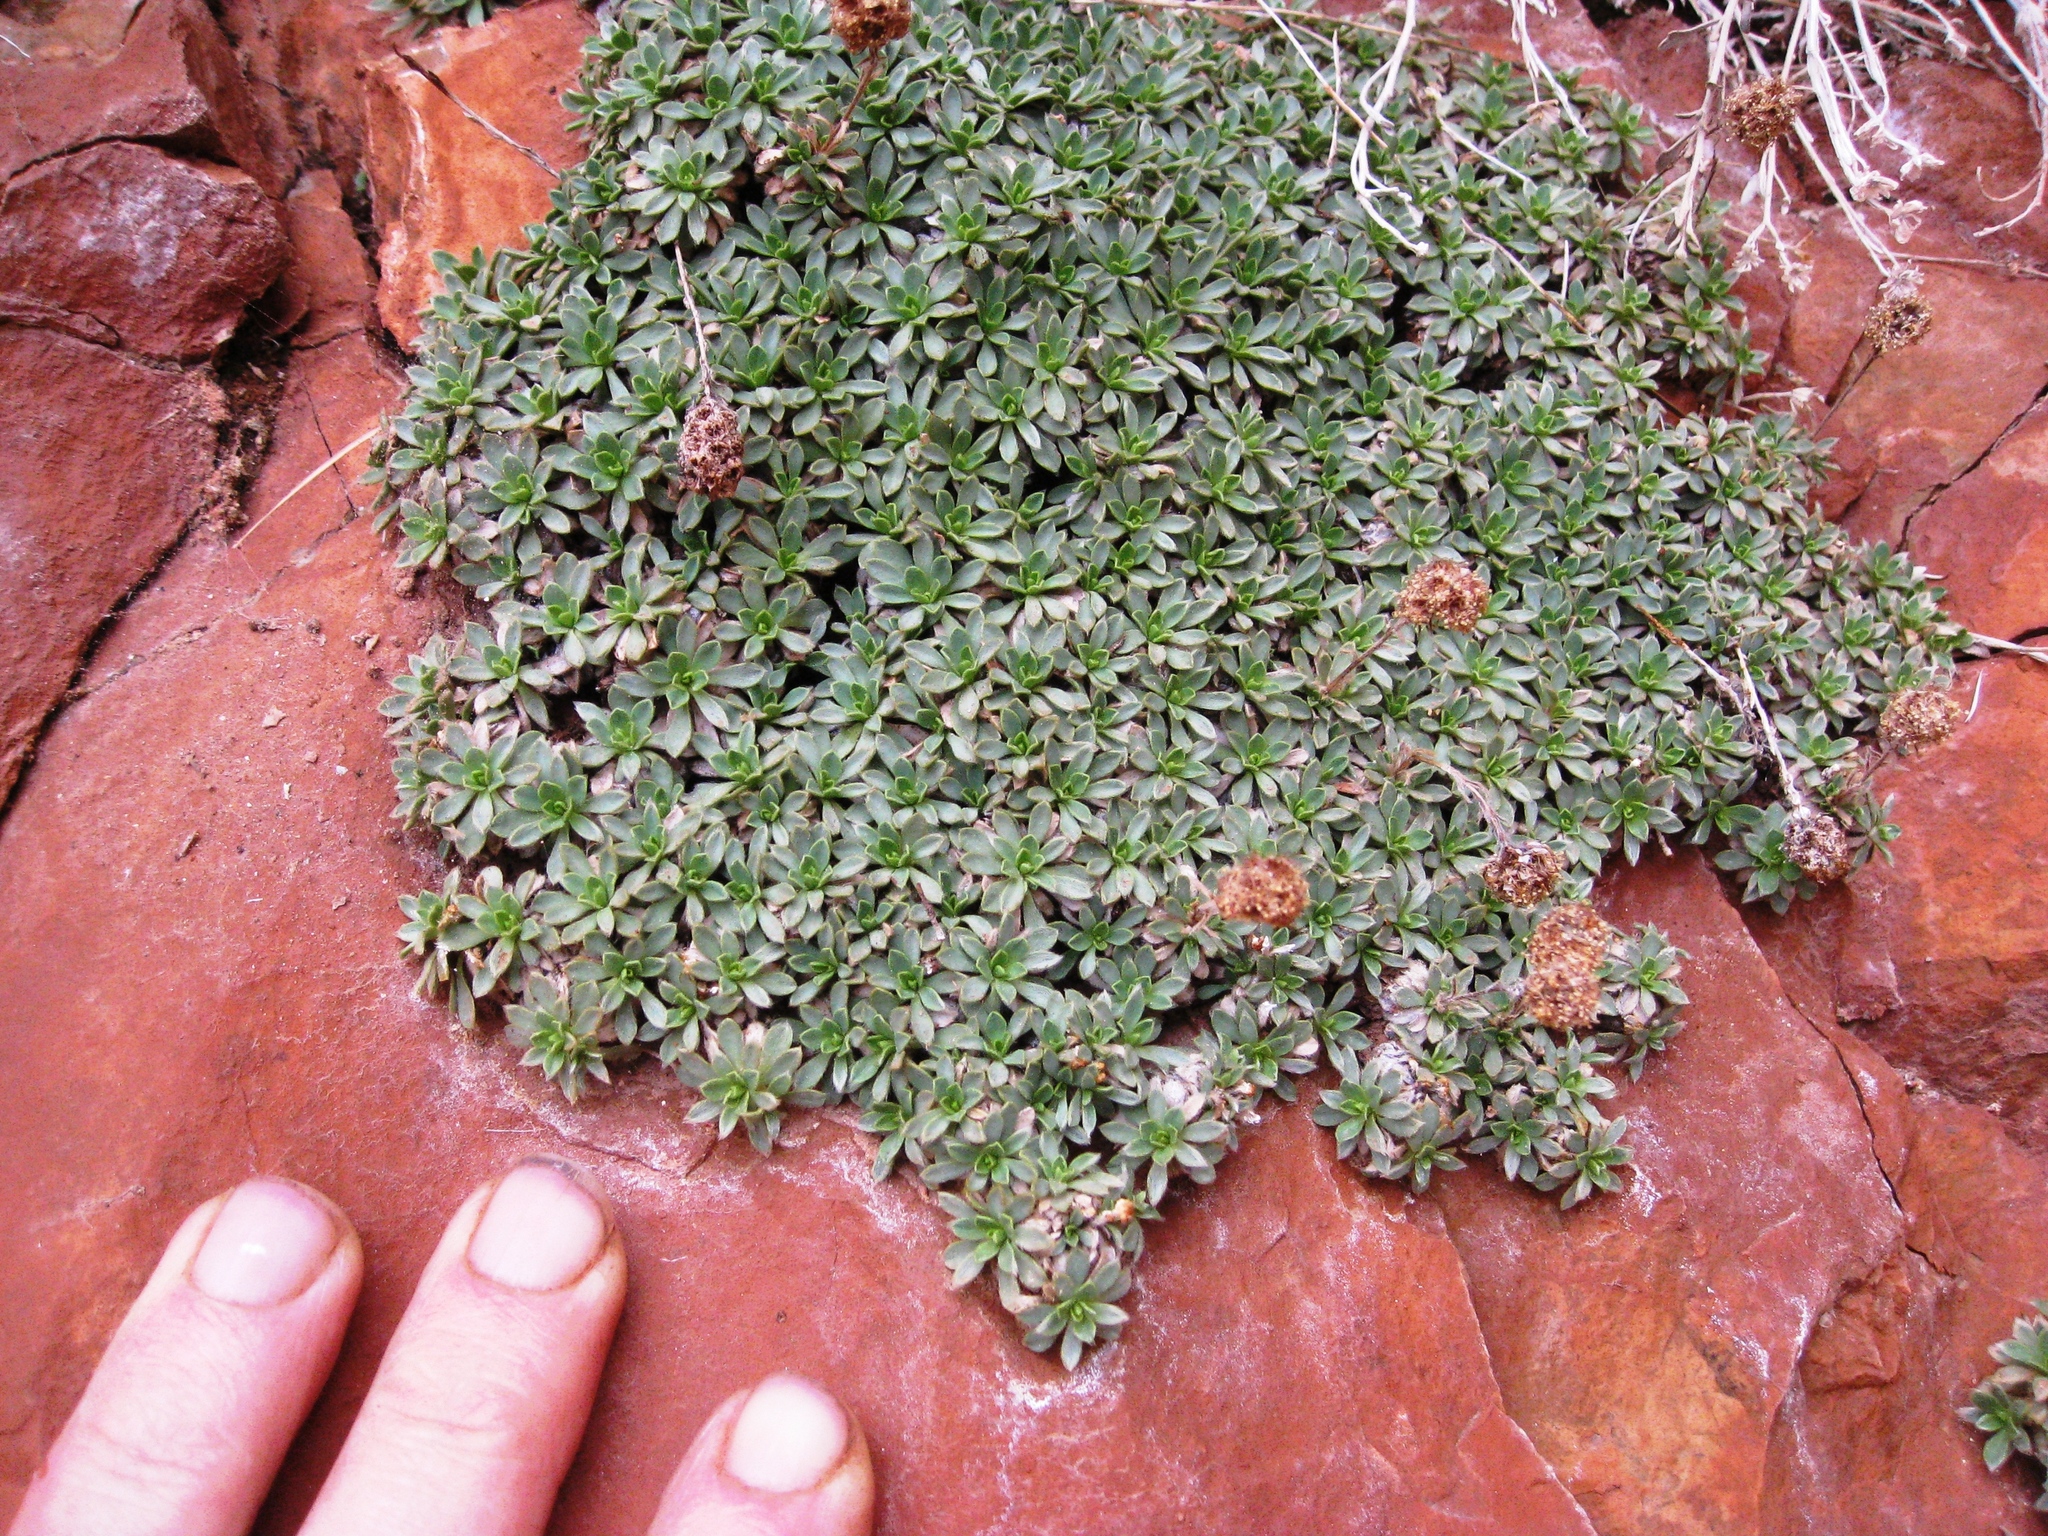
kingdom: Plantae
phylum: Tracheophyta
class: Magnoliopsida
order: Rosales
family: Rosaceae
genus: Petrophytum
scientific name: Petrophytum caespitosum
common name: Mat rockspirea
